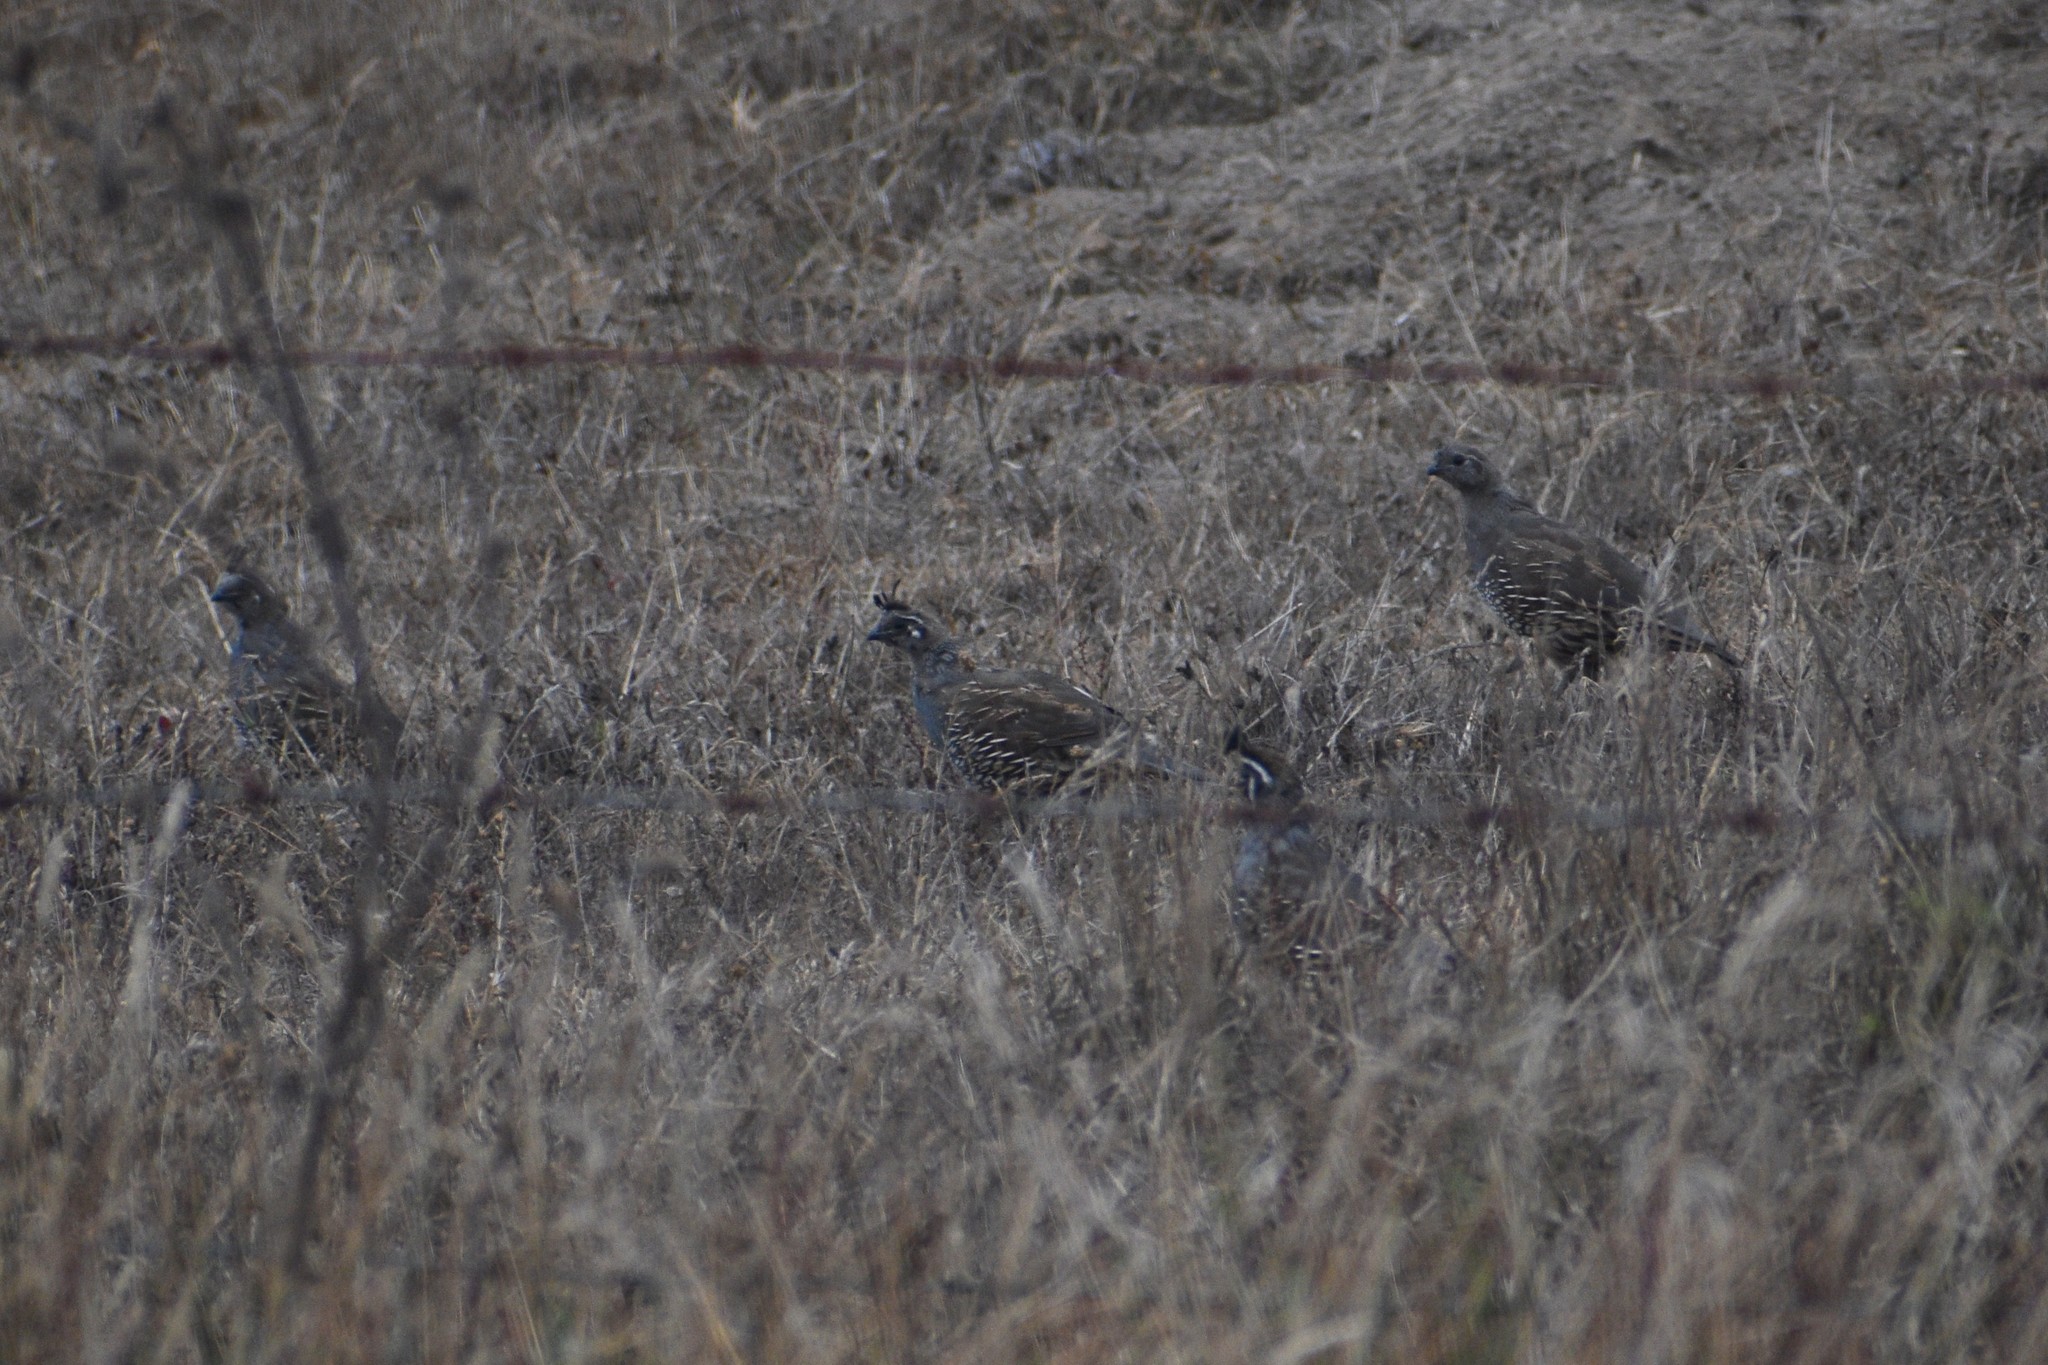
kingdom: Animalia
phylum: Chordata
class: Aves
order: Galliformes
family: Odontophoridae
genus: Callipepla
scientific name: Callipepla californica
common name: California quail
